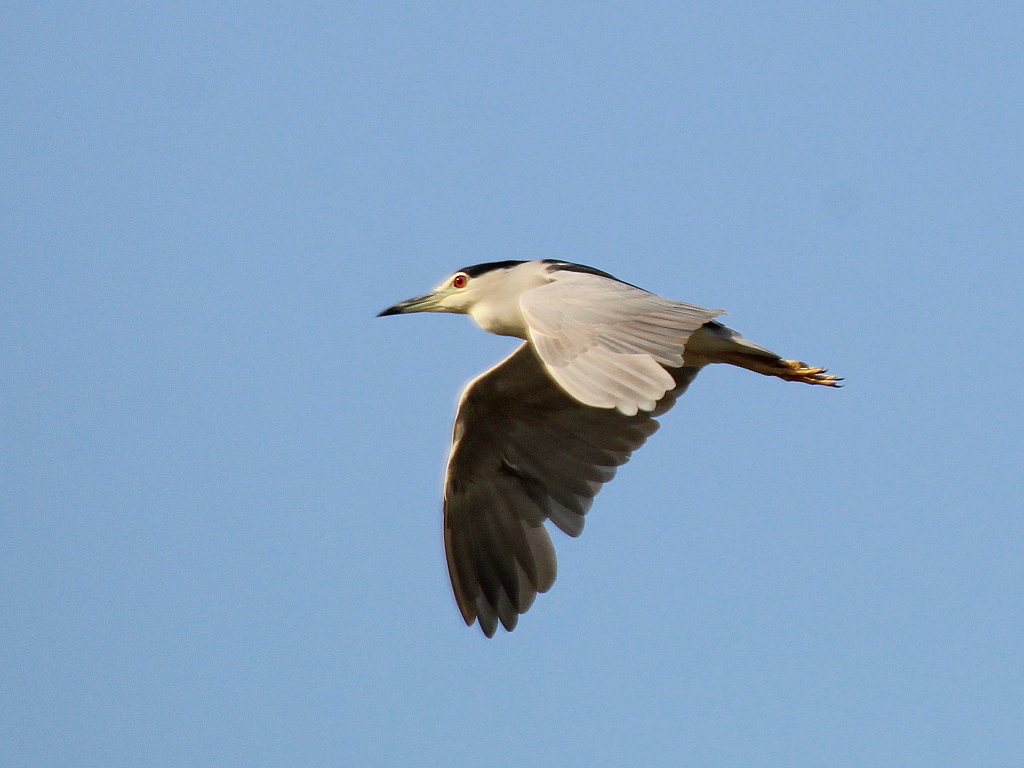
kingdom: Animalia
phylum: Chordata
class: Aves
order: Pelecaniformes
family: Ardeidae
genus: Nycticorax
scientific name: Nycticorax nycticorax
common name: Black-crowned night heron
